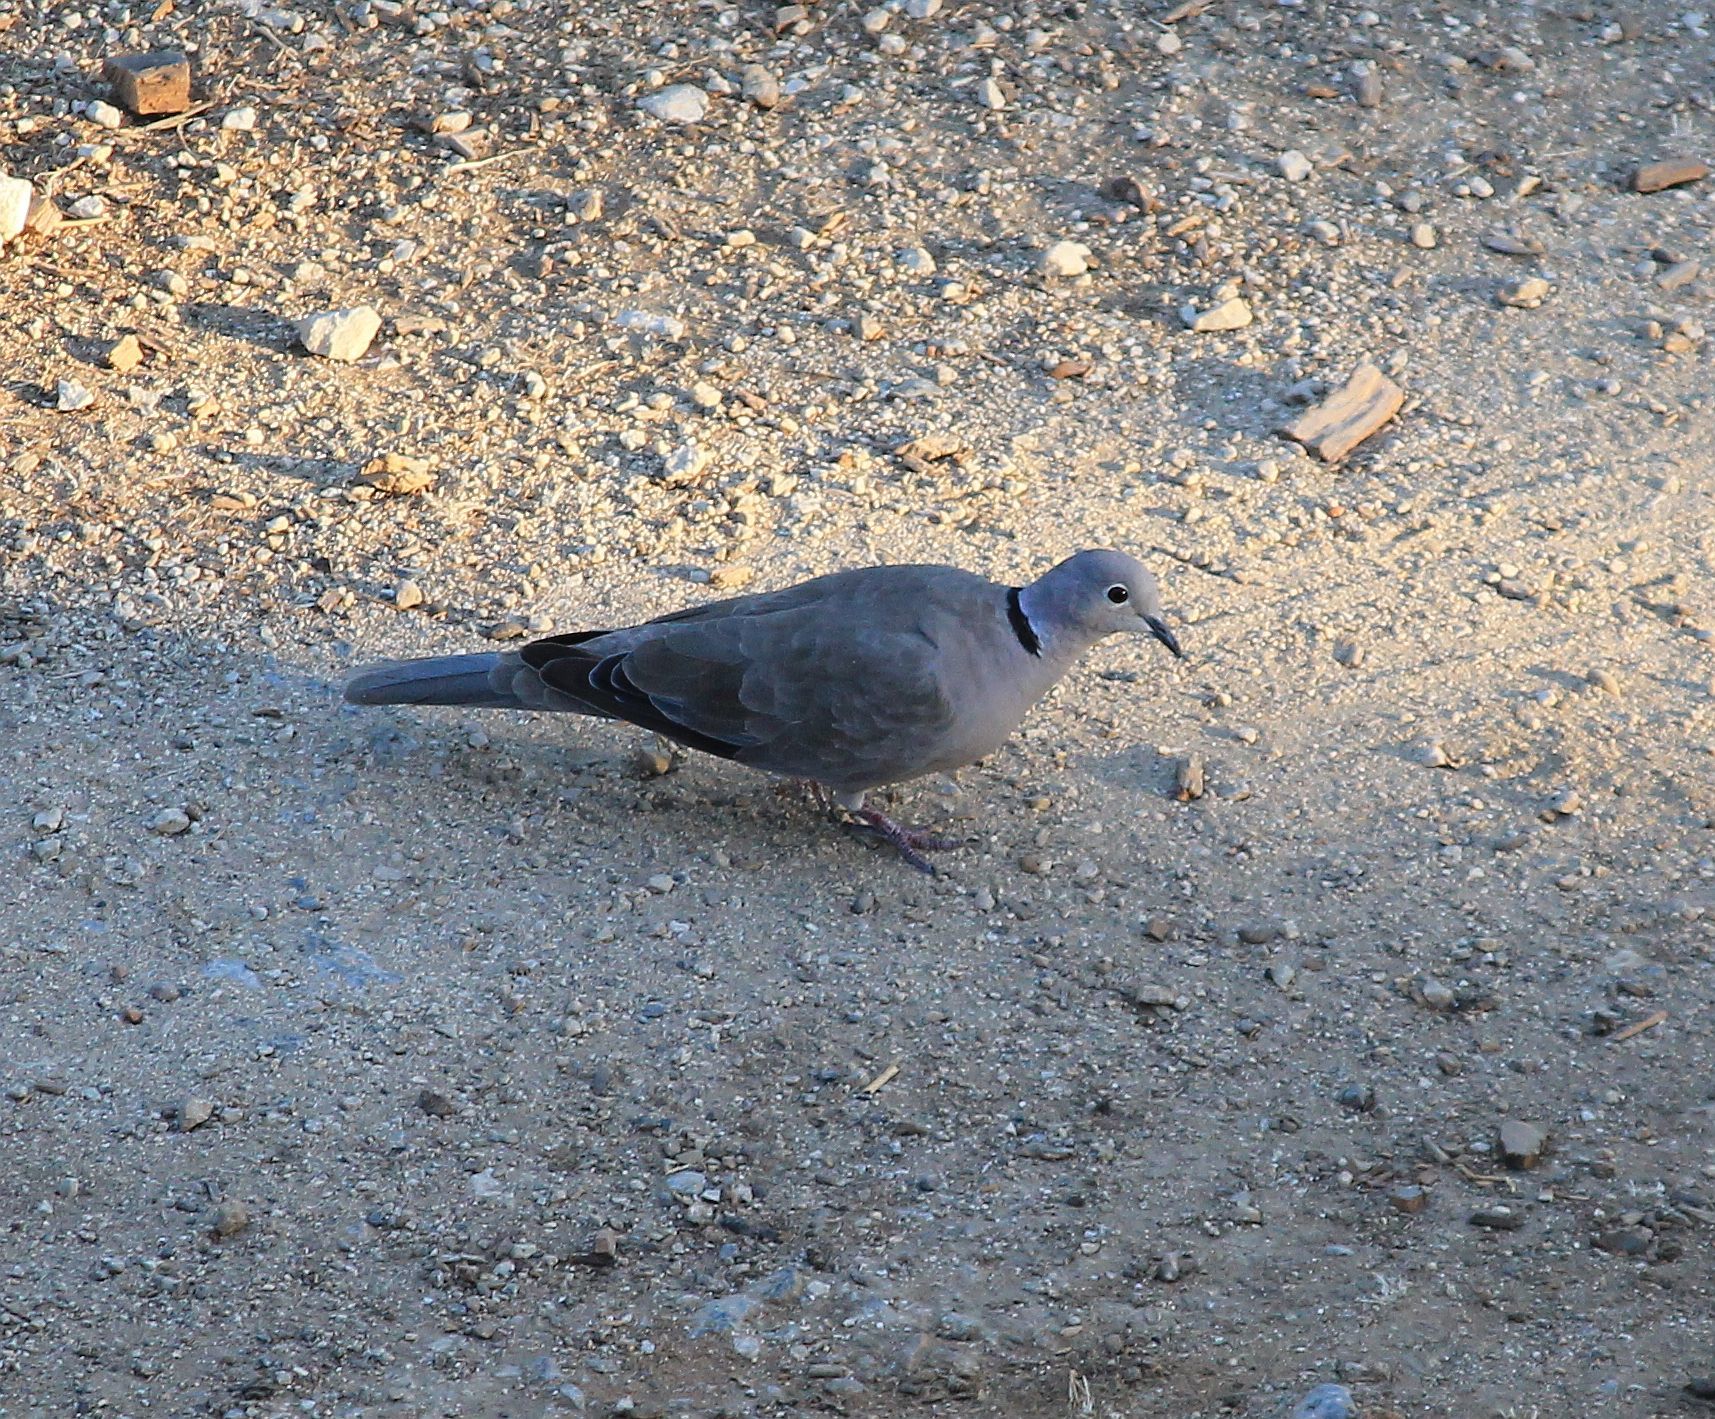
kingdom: Animalia
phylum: Chordata
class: Aves
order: Columbiformes
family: Columbidae
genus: Streptopelia
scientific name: Streptopelia decaocto
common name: Eurasian collared dove
